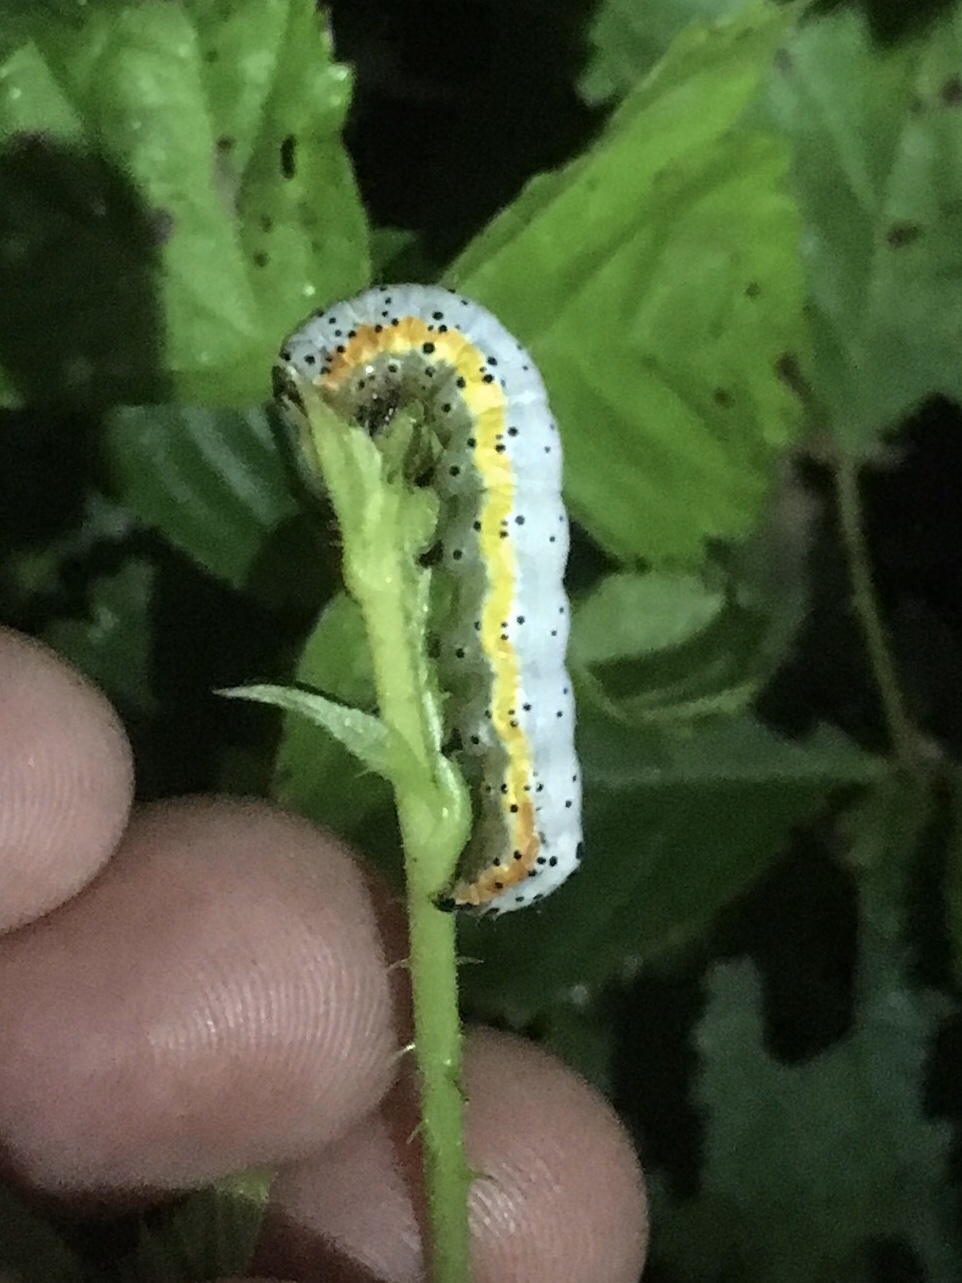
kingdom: Animalia
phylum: Arthropoda
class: Insecta
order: Lepidoptera
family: Noctuidae
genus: Pyrrhia
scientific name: Pyrrhia cilisca
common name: Bordered sallow moth
